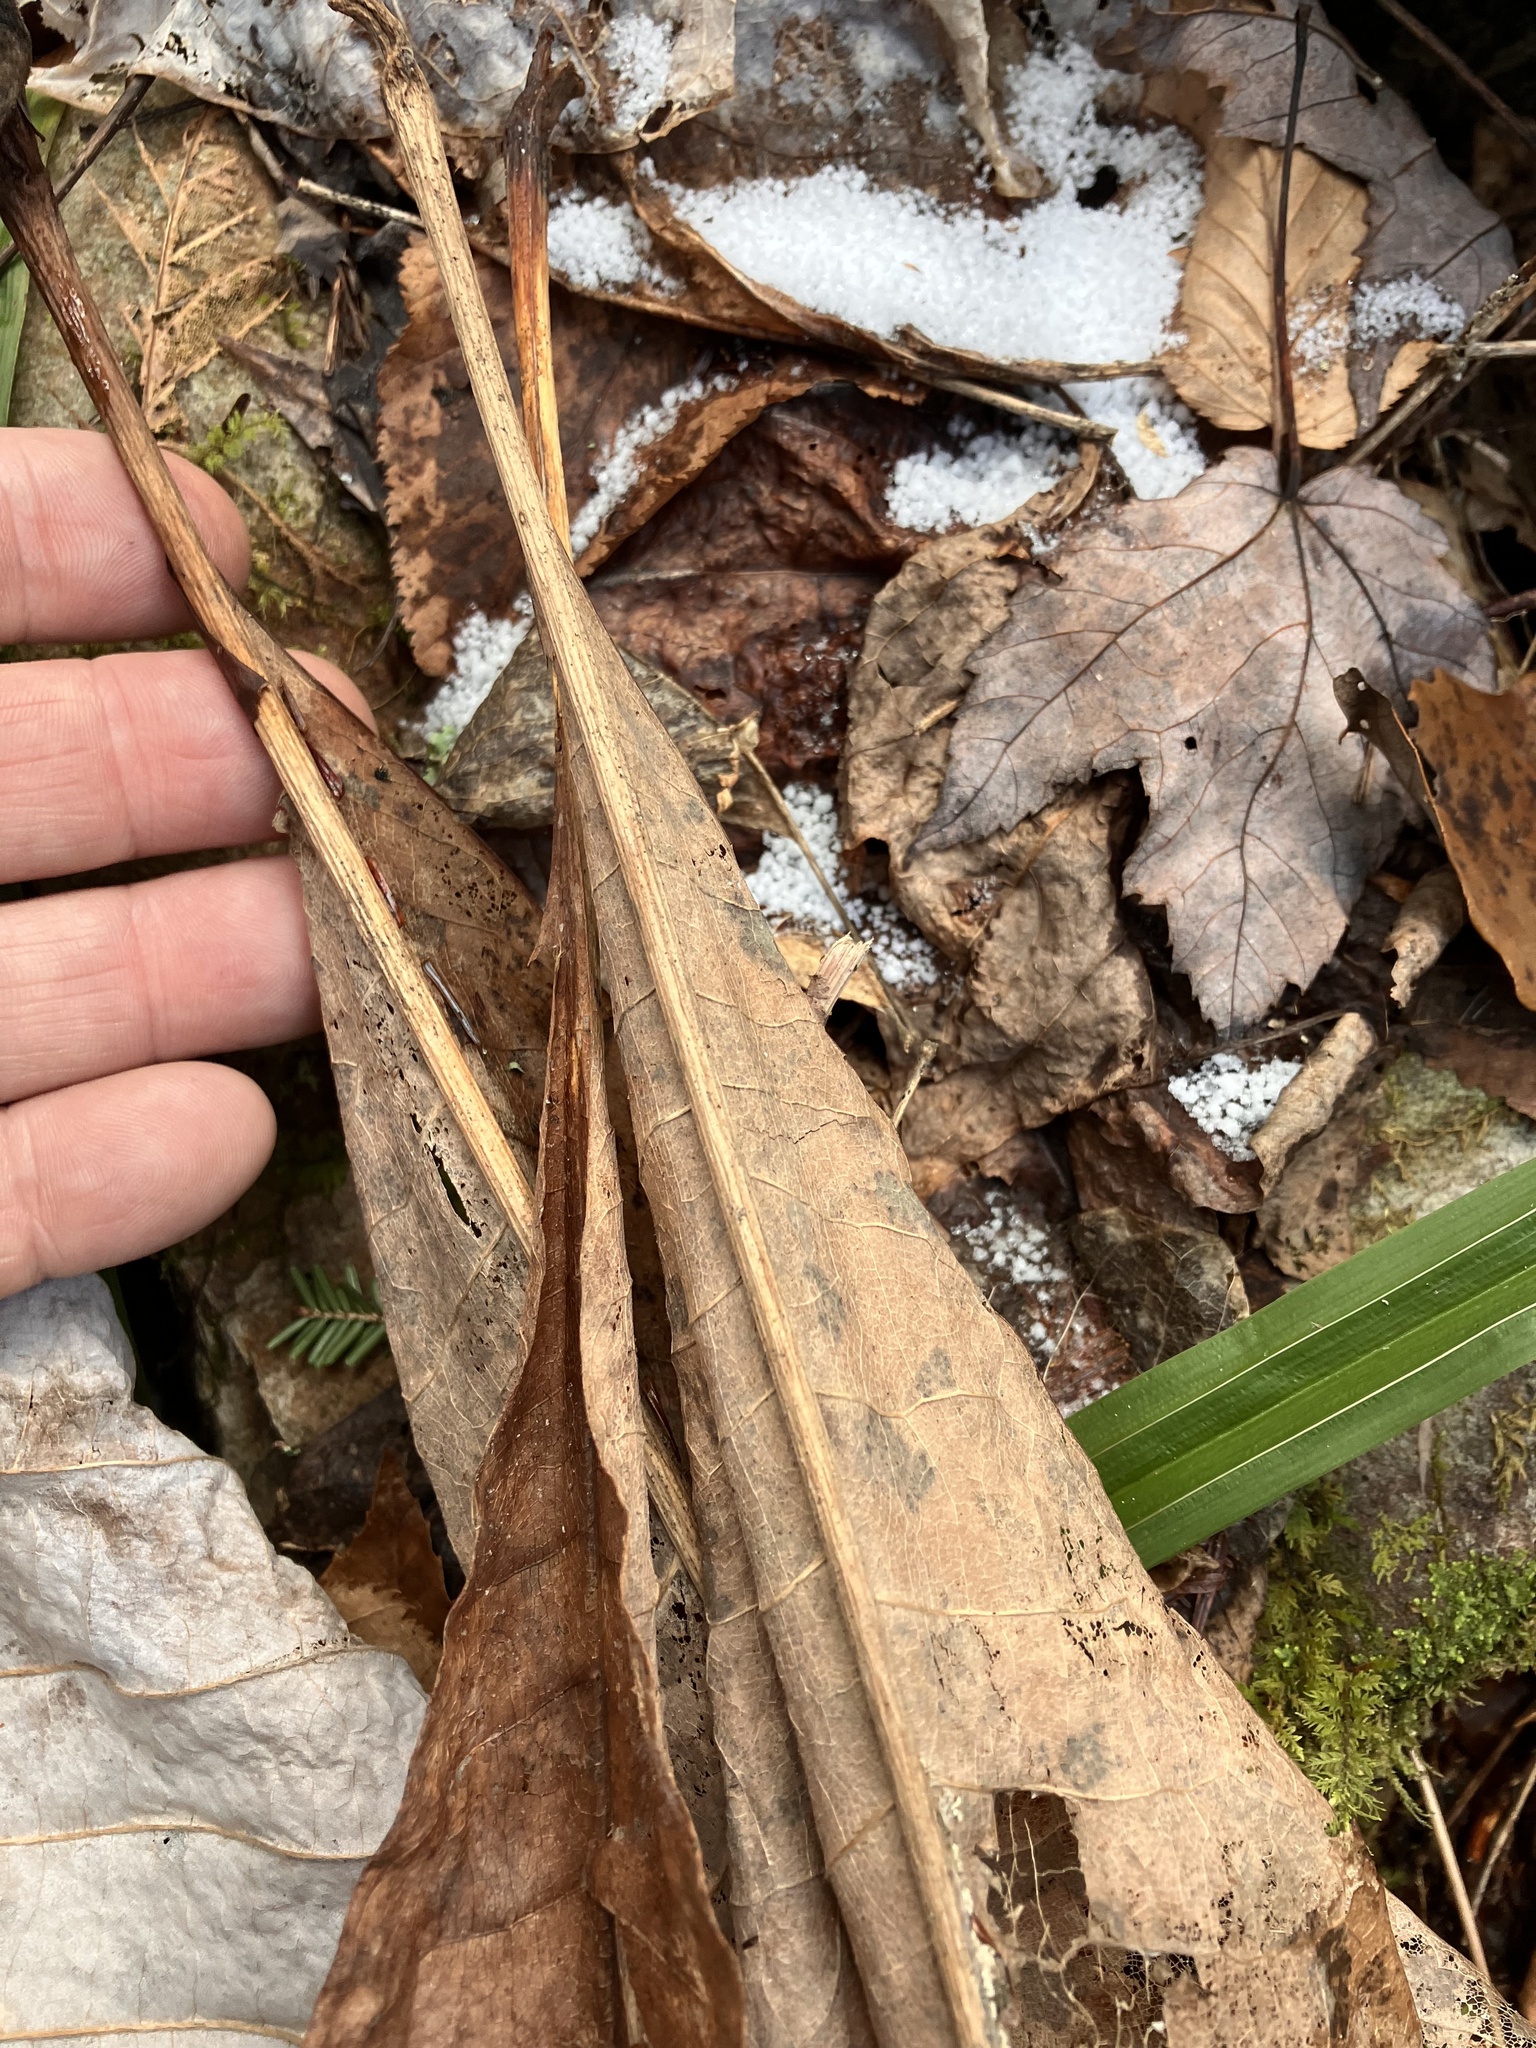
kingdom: Plantae
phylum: Tracheophyta
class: Magnoliopsida
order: Magnoliales
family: Magnoliaceae
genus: Magnolia
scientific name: Magnolia tripetala
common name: Umbrella magnolia
